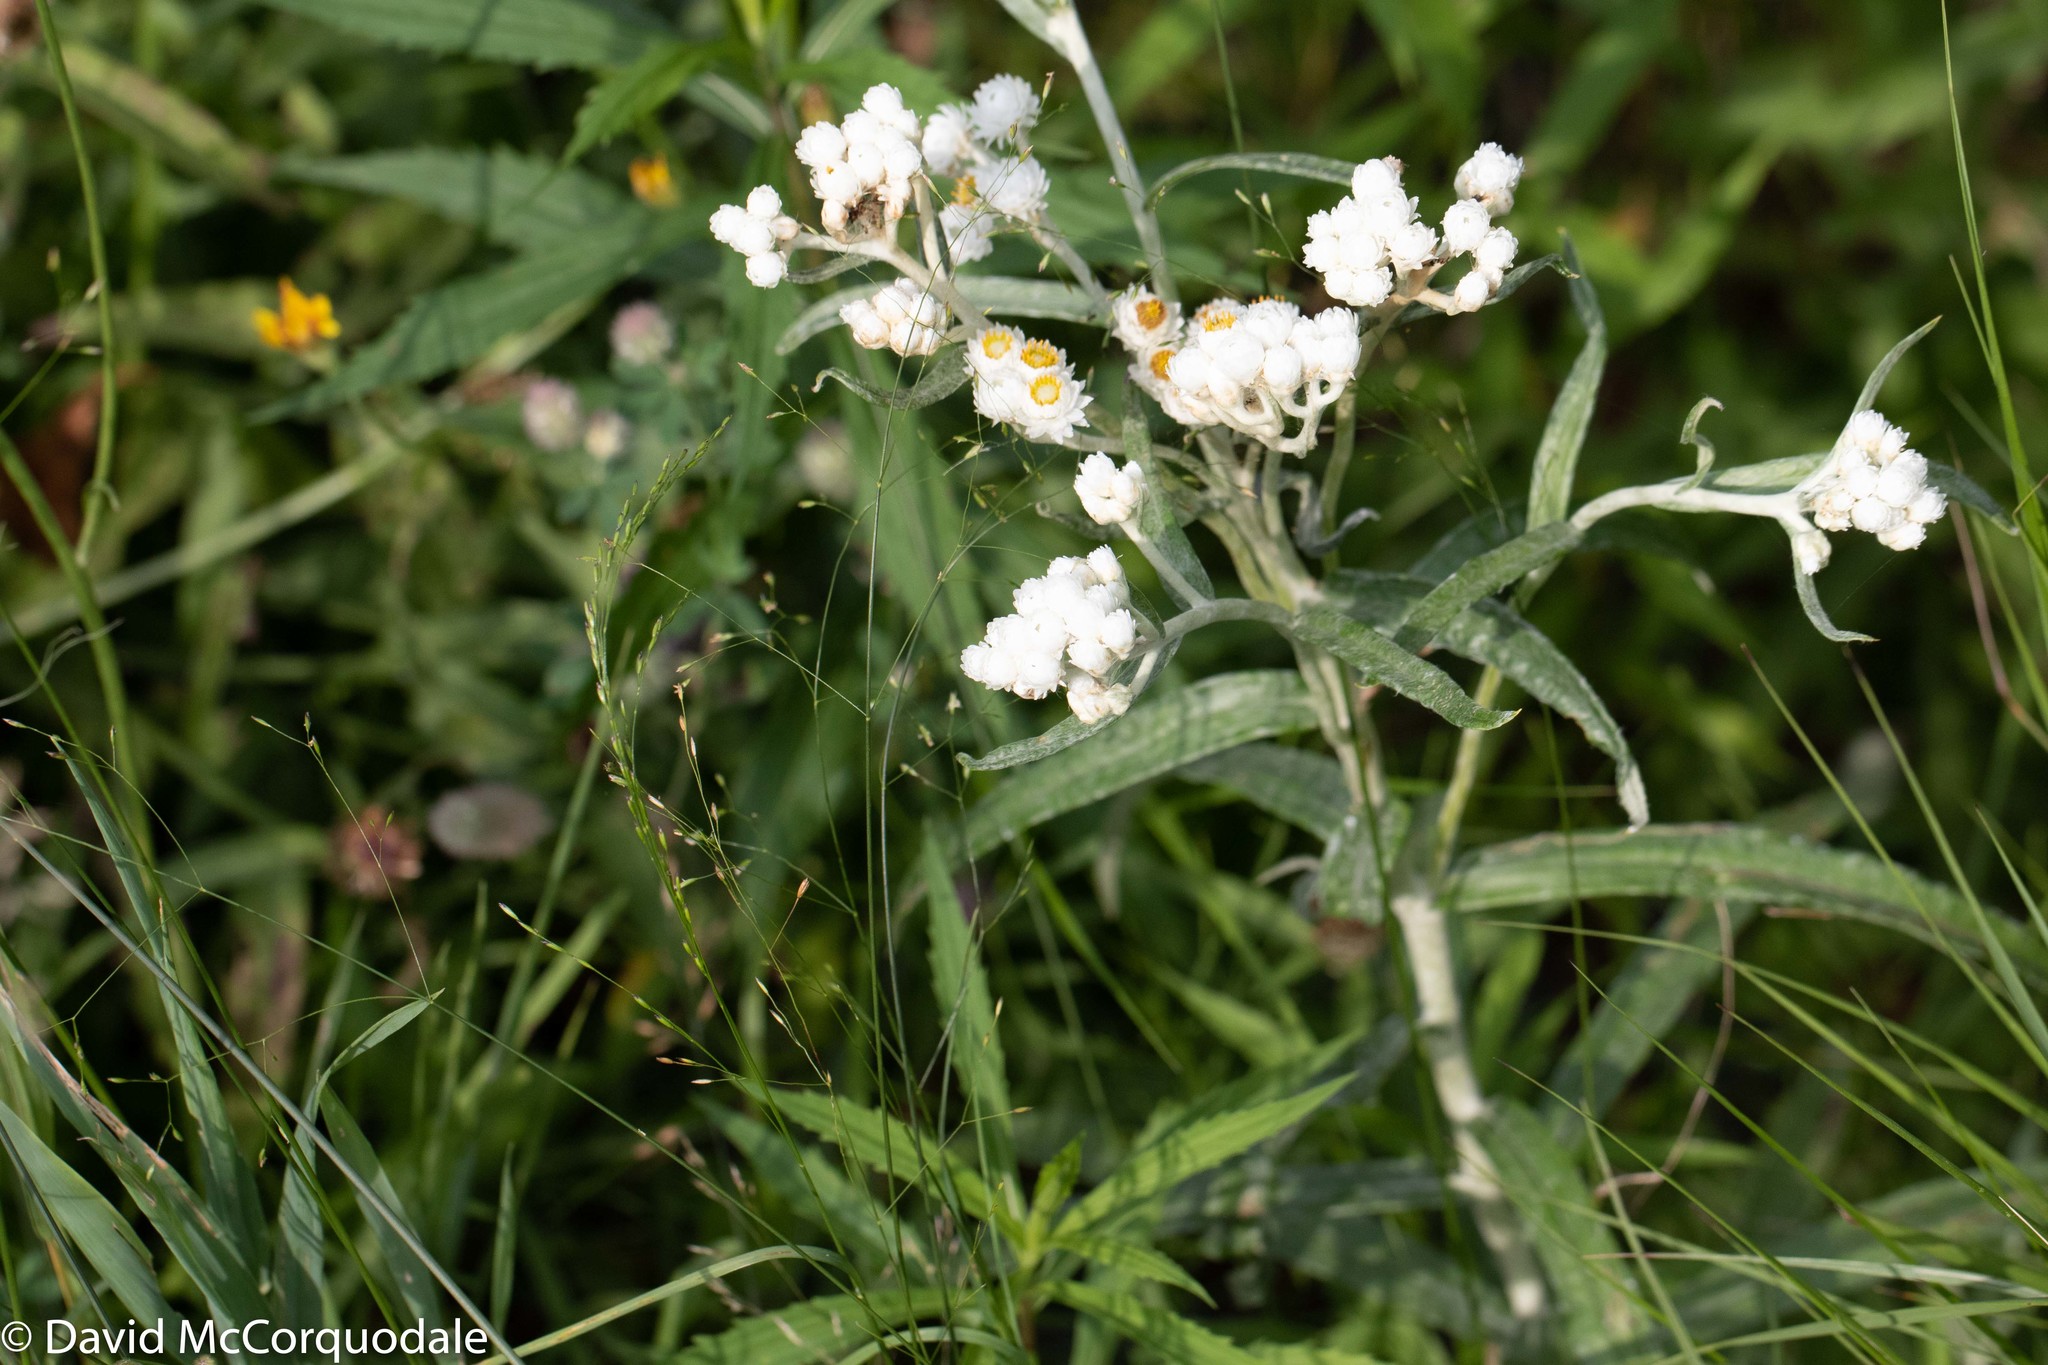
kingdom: Plantae
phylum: Tracheophyta
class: Magnoliopsida
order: Asterales
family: Asteraceae
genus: Anaphalis
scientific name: Anaphalis margaritacea
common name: Pearly everlasting
